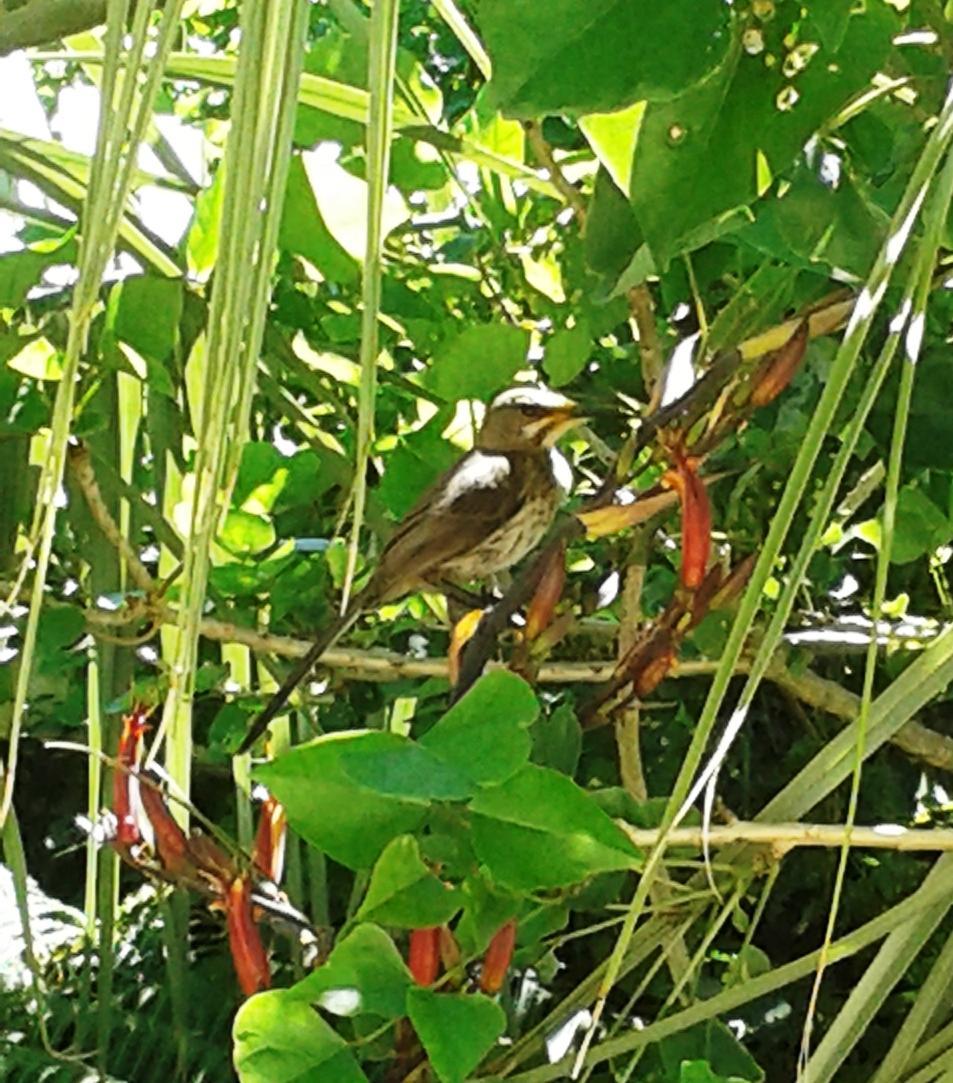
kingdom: Animalia
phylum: Chordata
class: Aves
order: Passeriformes
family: Promeropidae
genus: Promerops
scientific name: Promerops cafer
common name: Cape sugarbird
